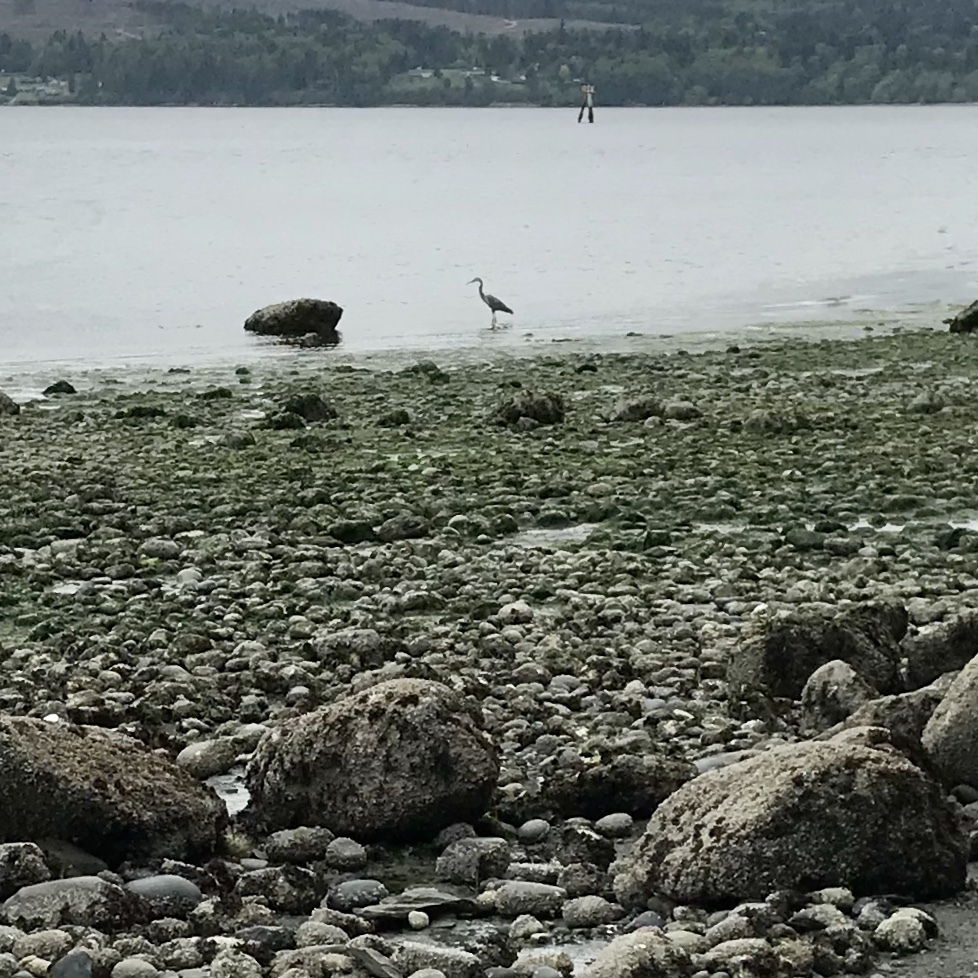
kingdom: Animalia
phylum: Chordata
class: Aves
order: Pelecaniformes
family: Ardeidae
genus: Ardea
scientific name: Ardea herodias
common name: Great blue heron
